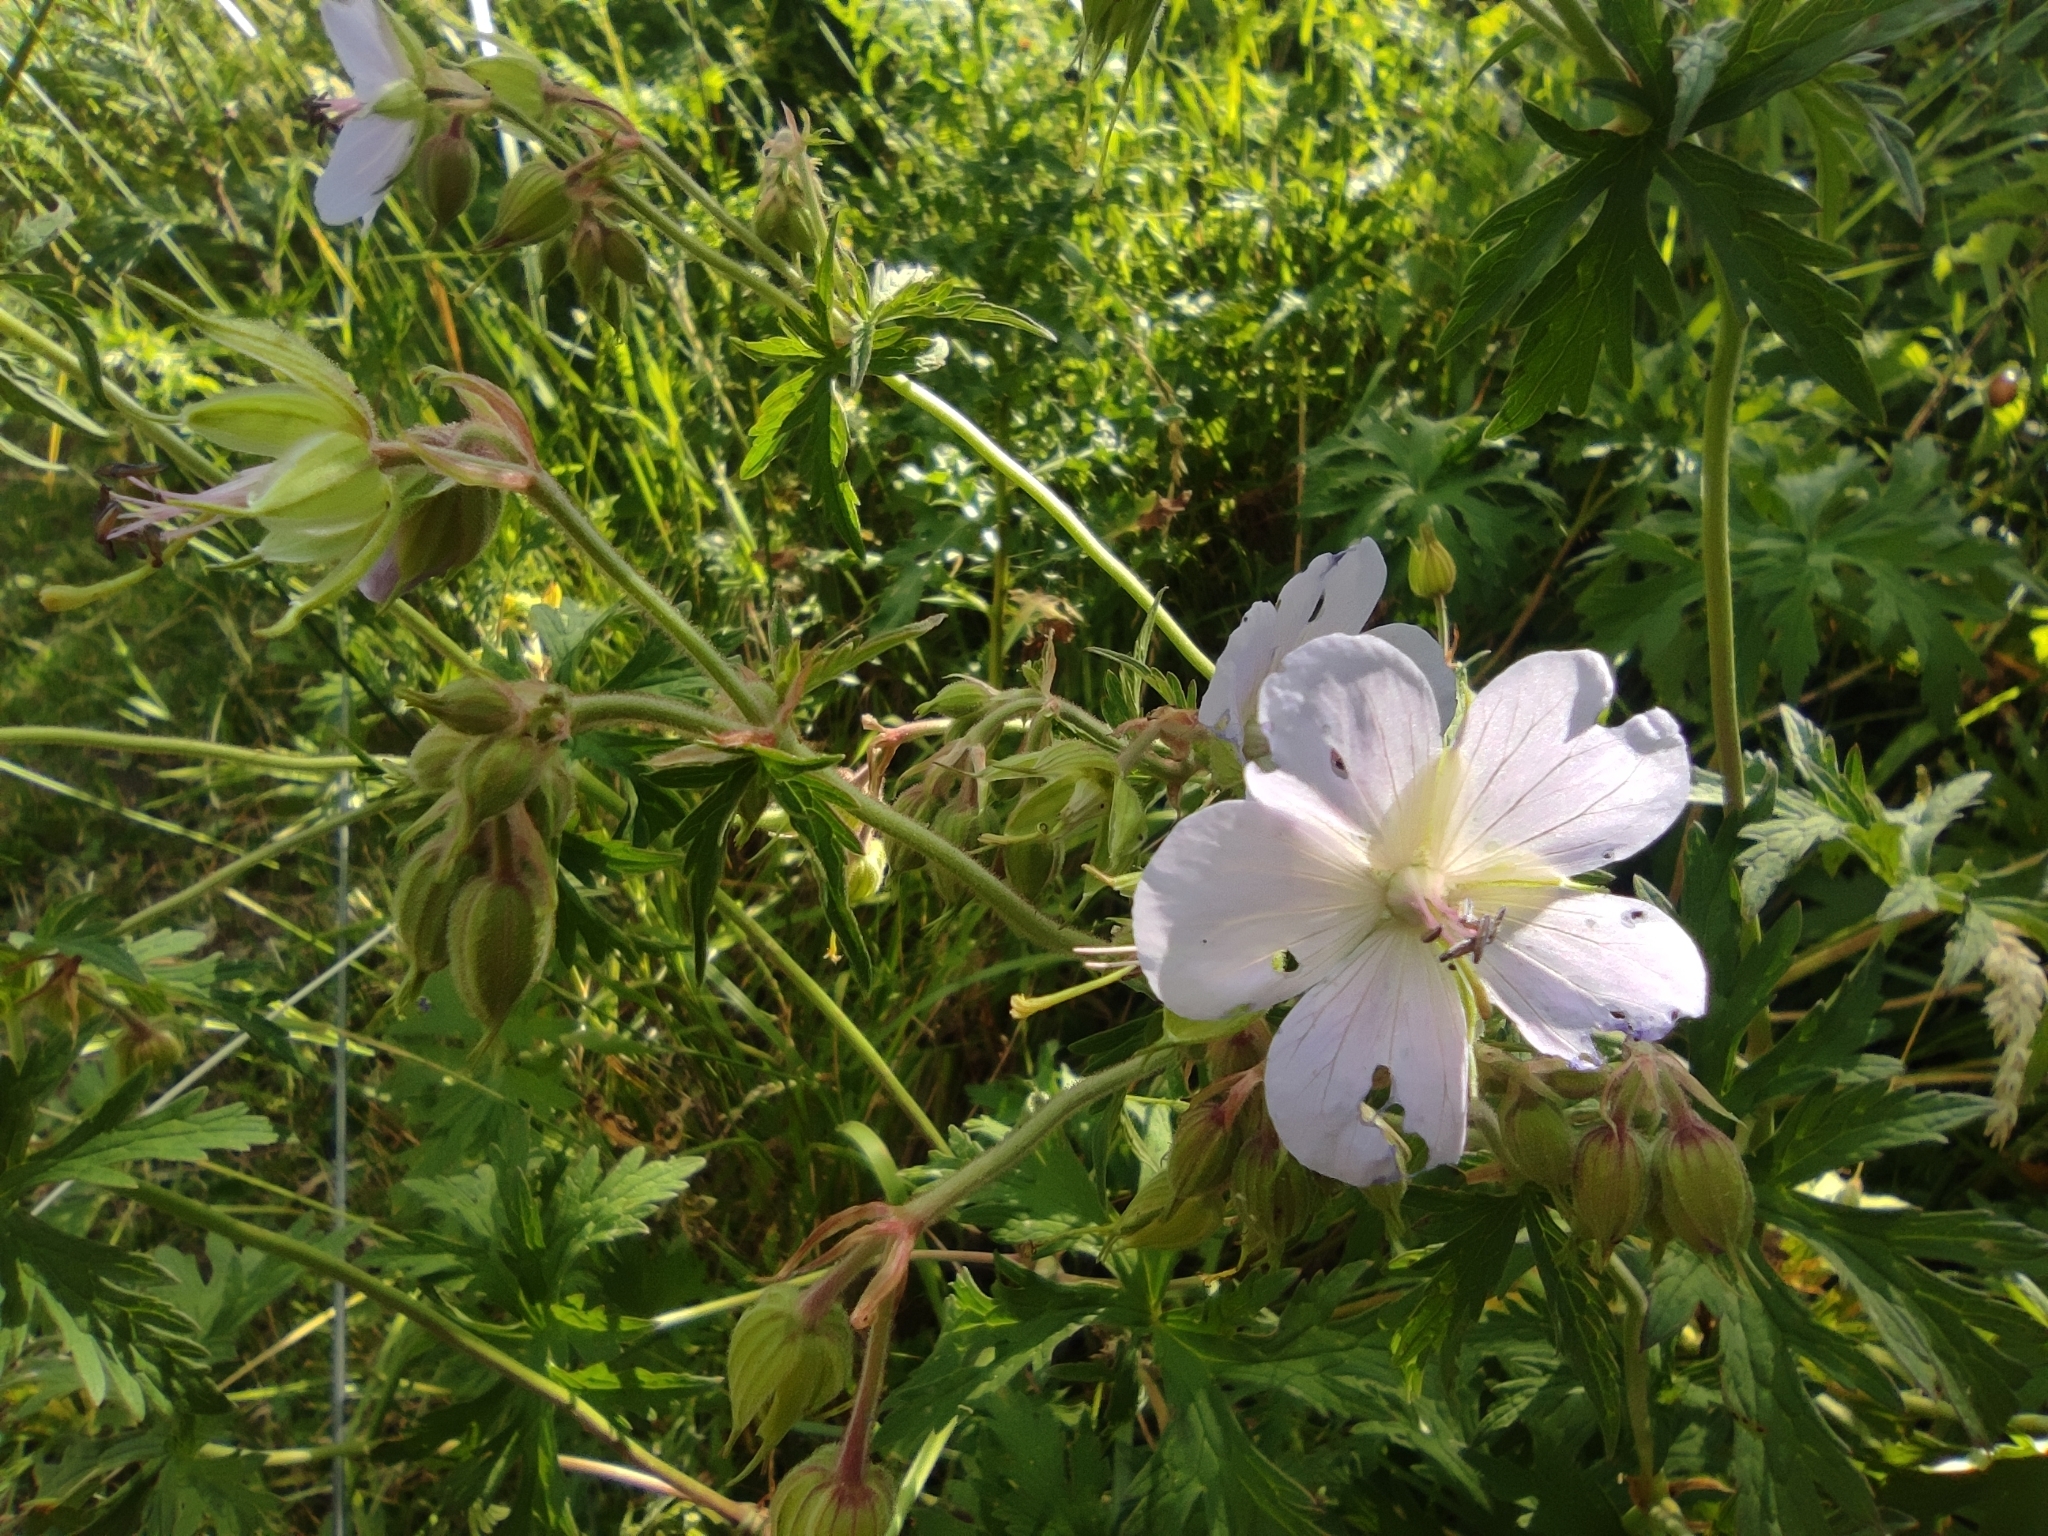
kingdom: Plantae
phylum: Tracheophyta
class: Magnoliopsida
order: Geraniales
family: Geraniaceae
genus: Geranium
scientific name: Geranium pratense
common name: Meadow crane's-bill
